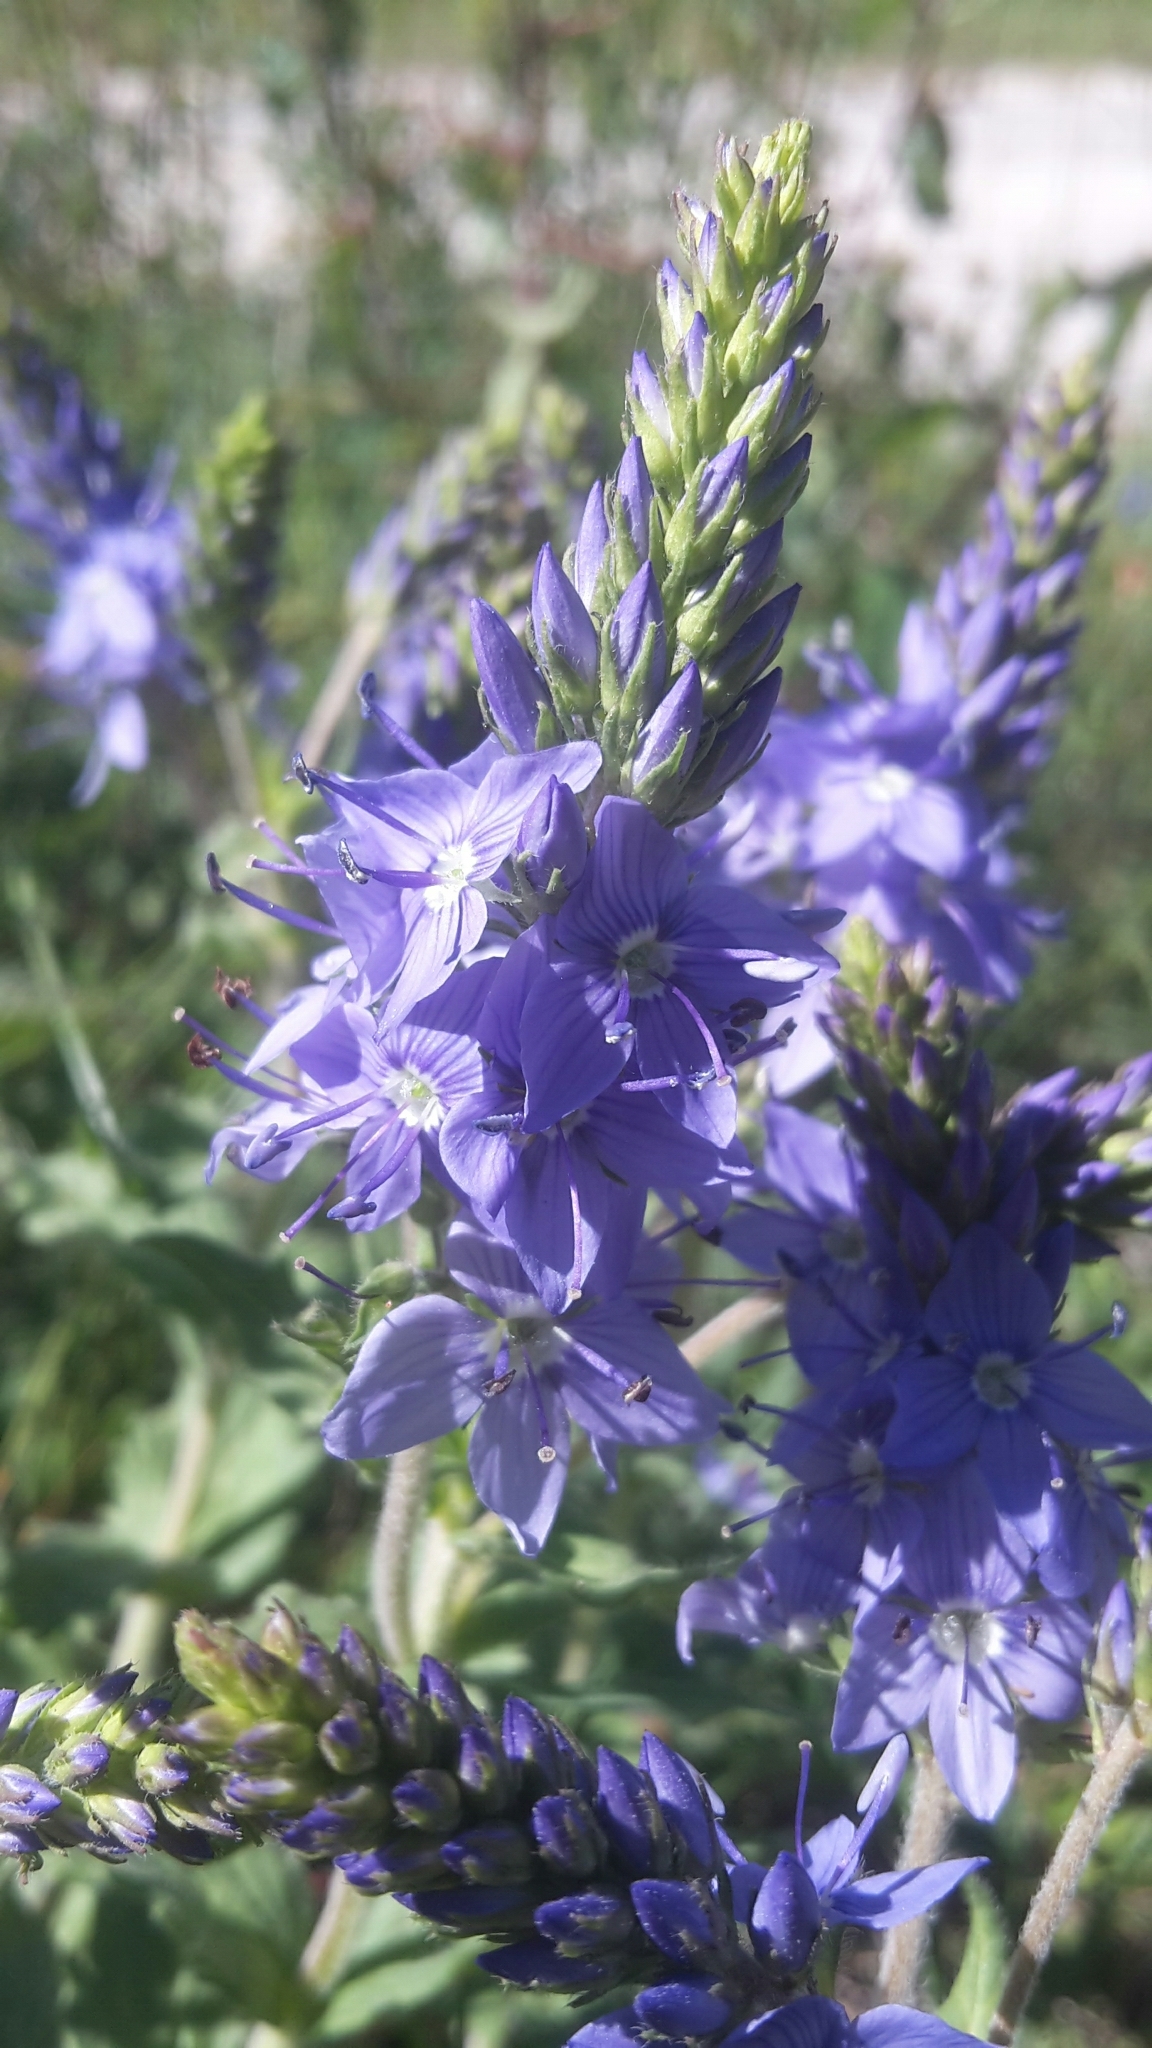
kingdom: Plantae
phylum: Tracheophyta
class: Magnoliopsida
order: Lamiales
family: Plantaginaceae
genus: Veronica
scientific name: Veronica teucrium
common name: Large speedwell
